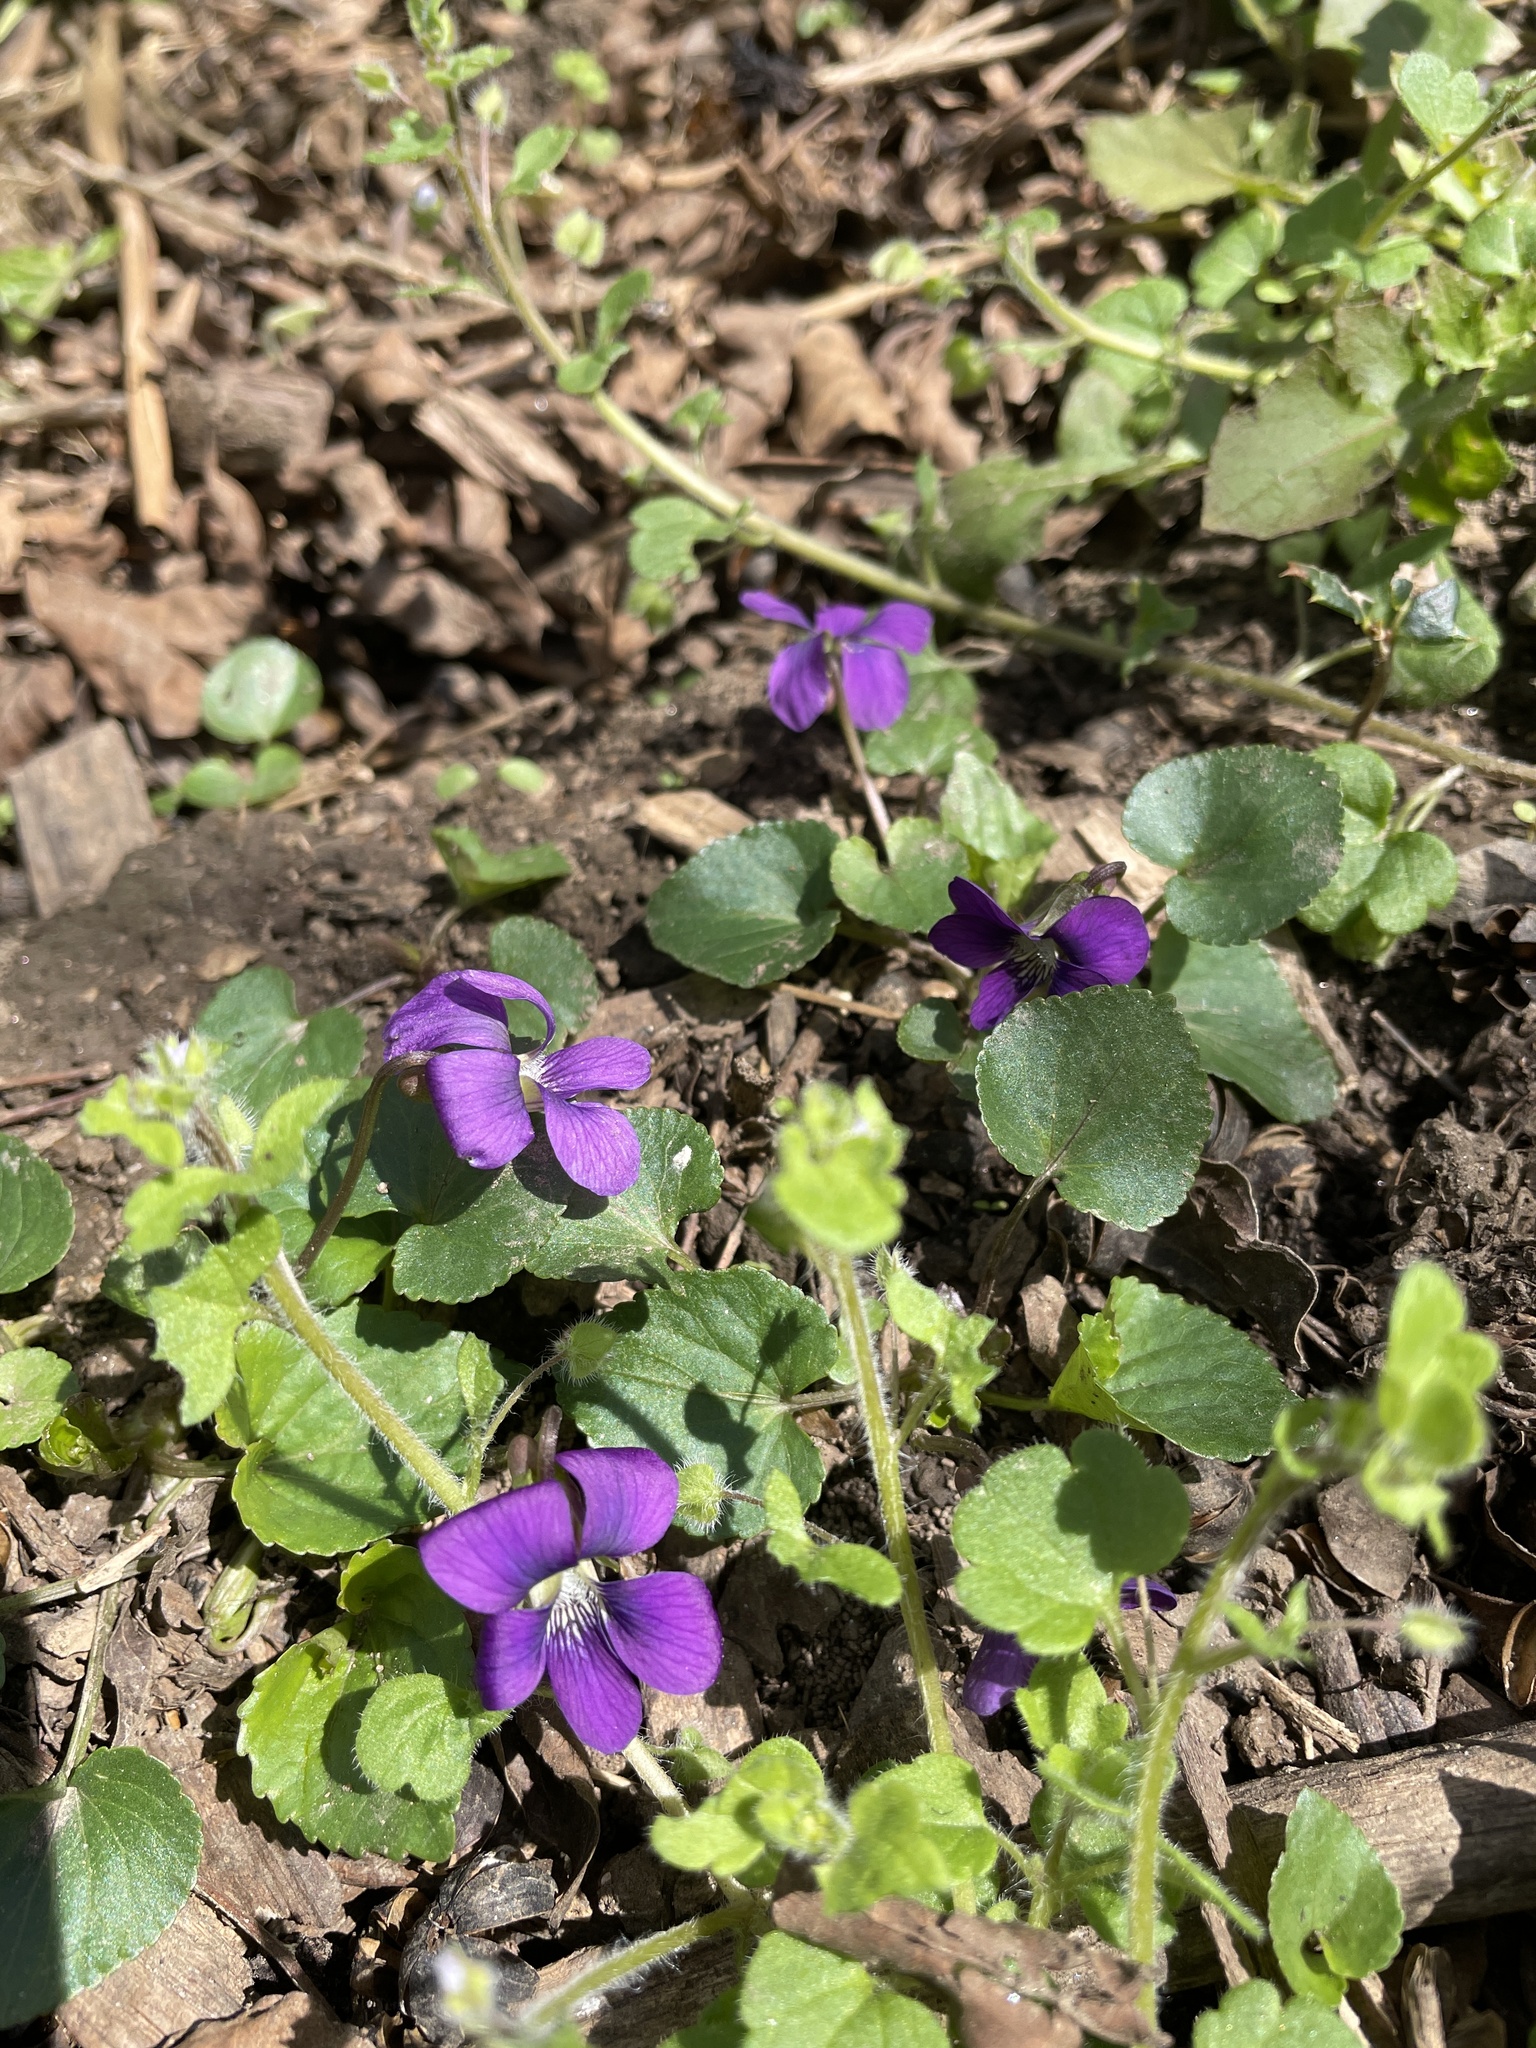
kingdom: Plantae
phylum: Tracheophyta
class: Magnoliopsida
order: Malpighiales
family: Violaceae
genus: Viola
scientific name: Viola sororia
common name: Dooryard violet
